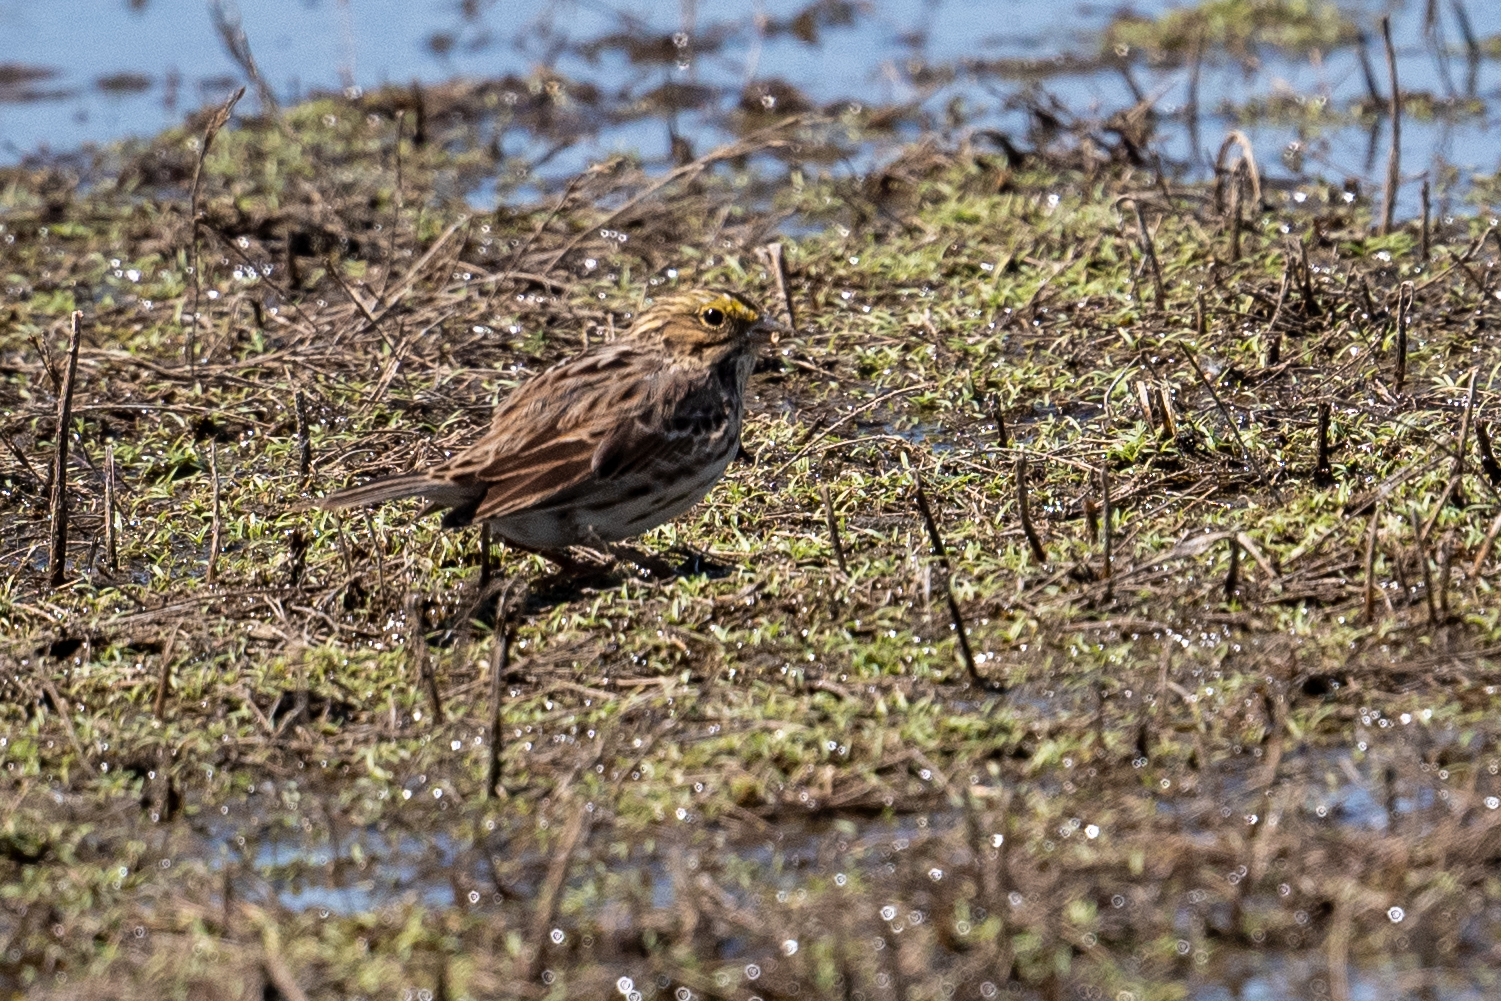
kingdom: Animalia
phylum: Chordata
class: Aves
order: Passeriformes
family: Passerellidae
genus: Passerculus
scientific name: Passerculus sandwichensis
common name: Savannah sparrow
